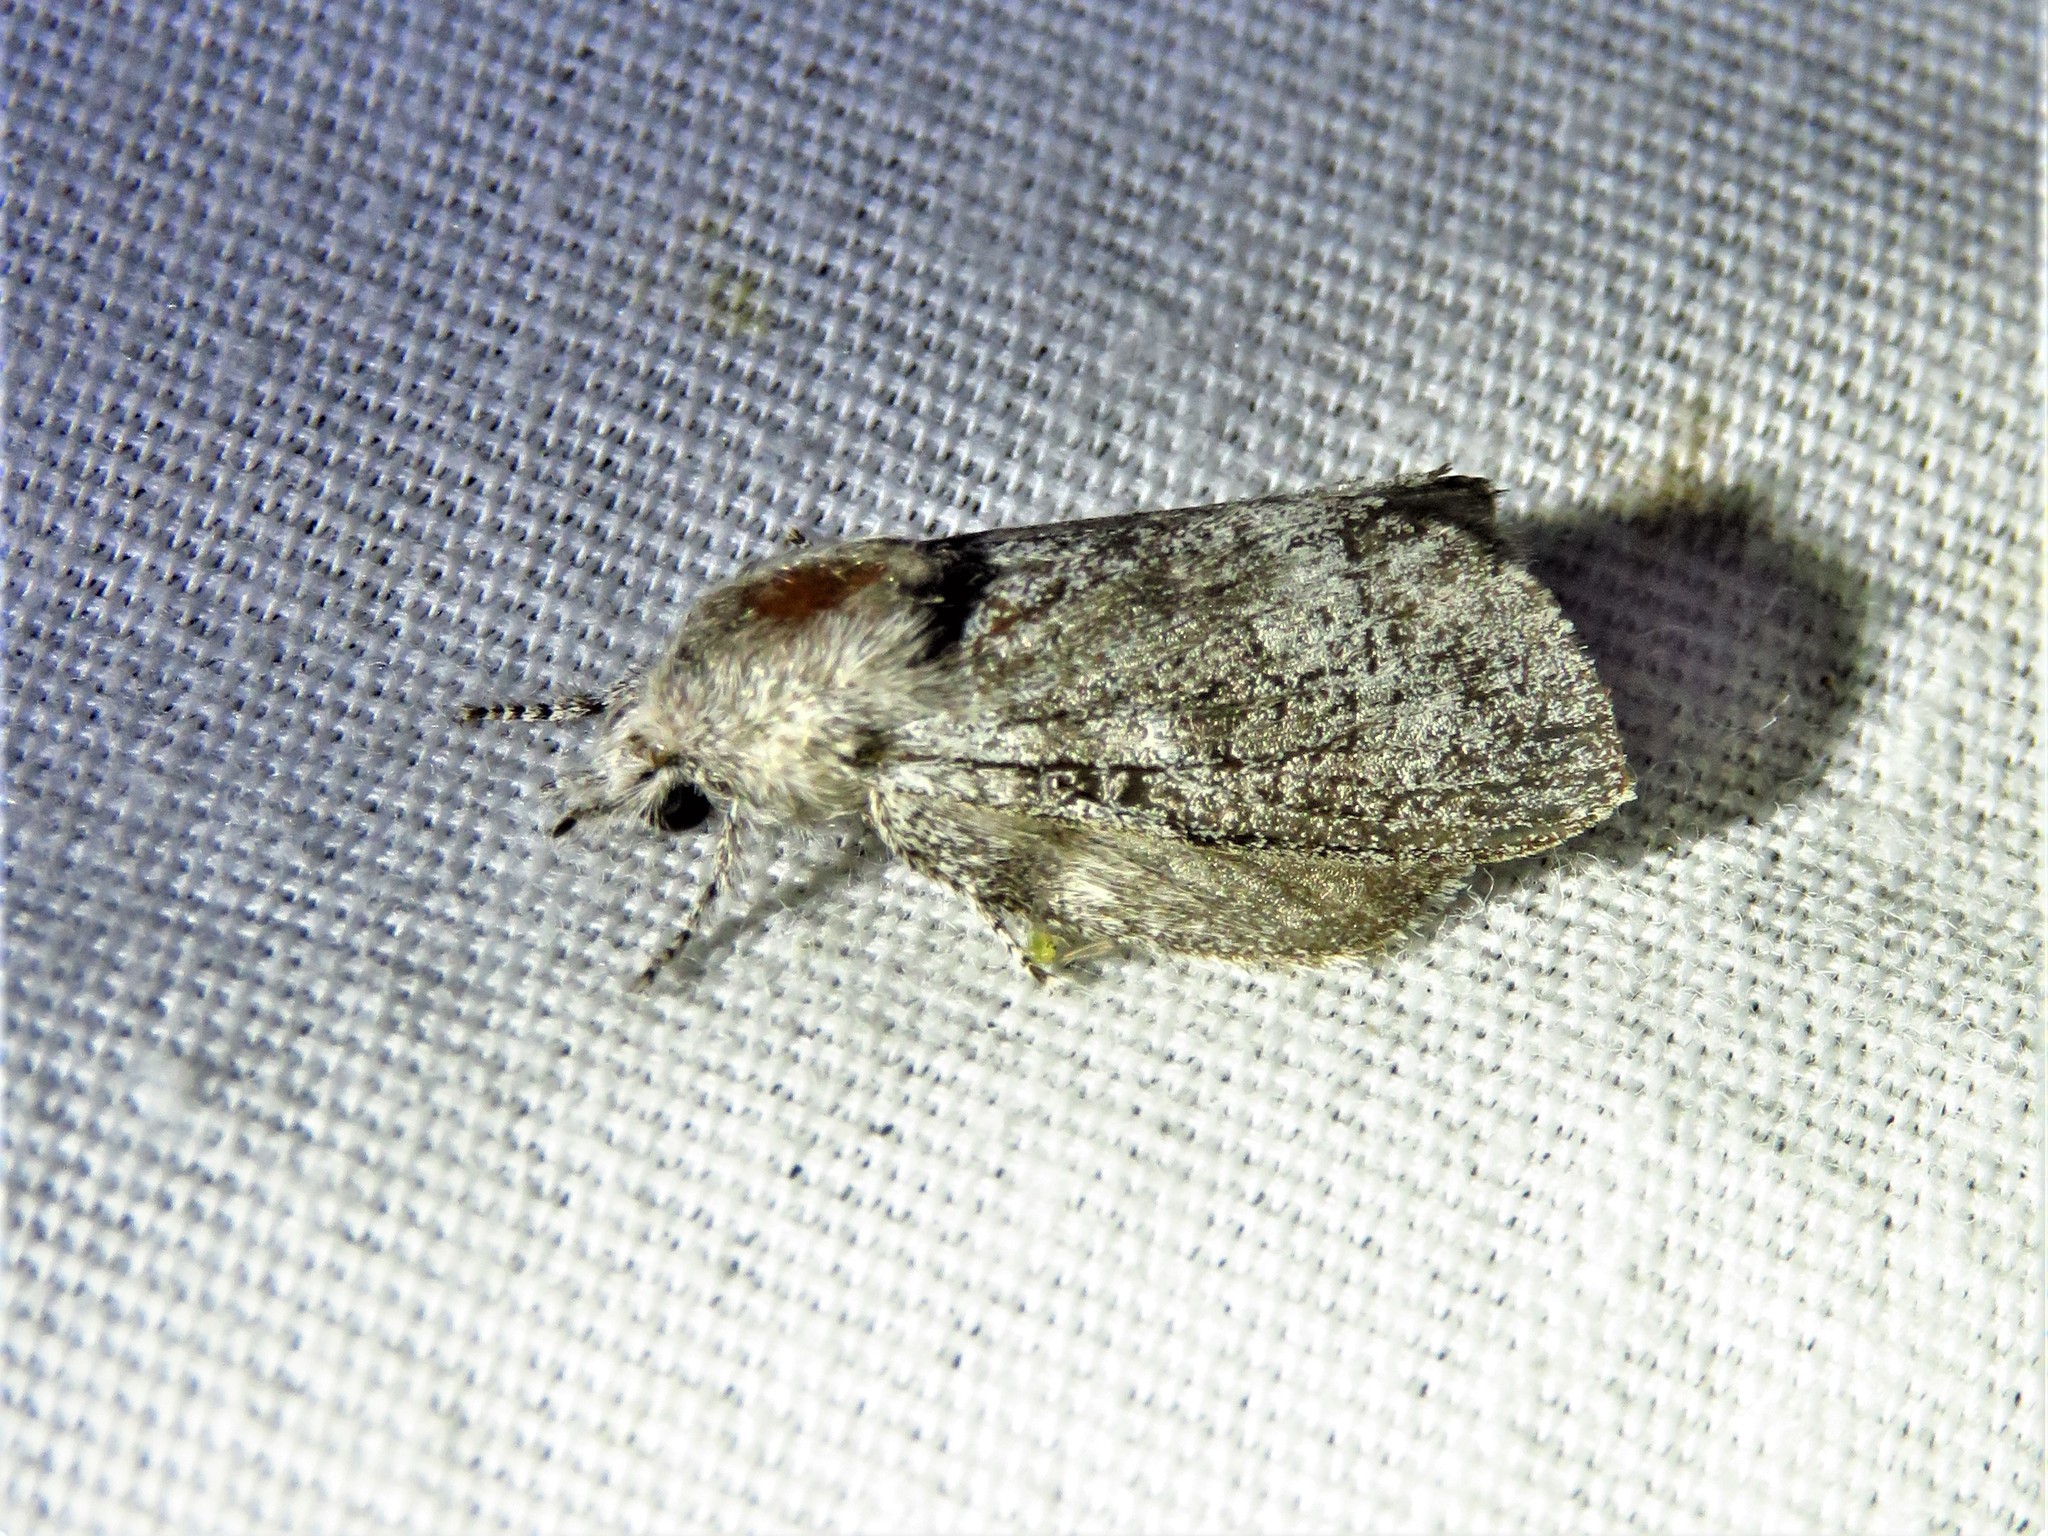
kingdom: Animalia
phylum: Arthropoda
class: Insecta
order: Lepidoptera
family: Lasiocampidae
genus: Heteropacha
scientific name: Heteropacha rileyana
